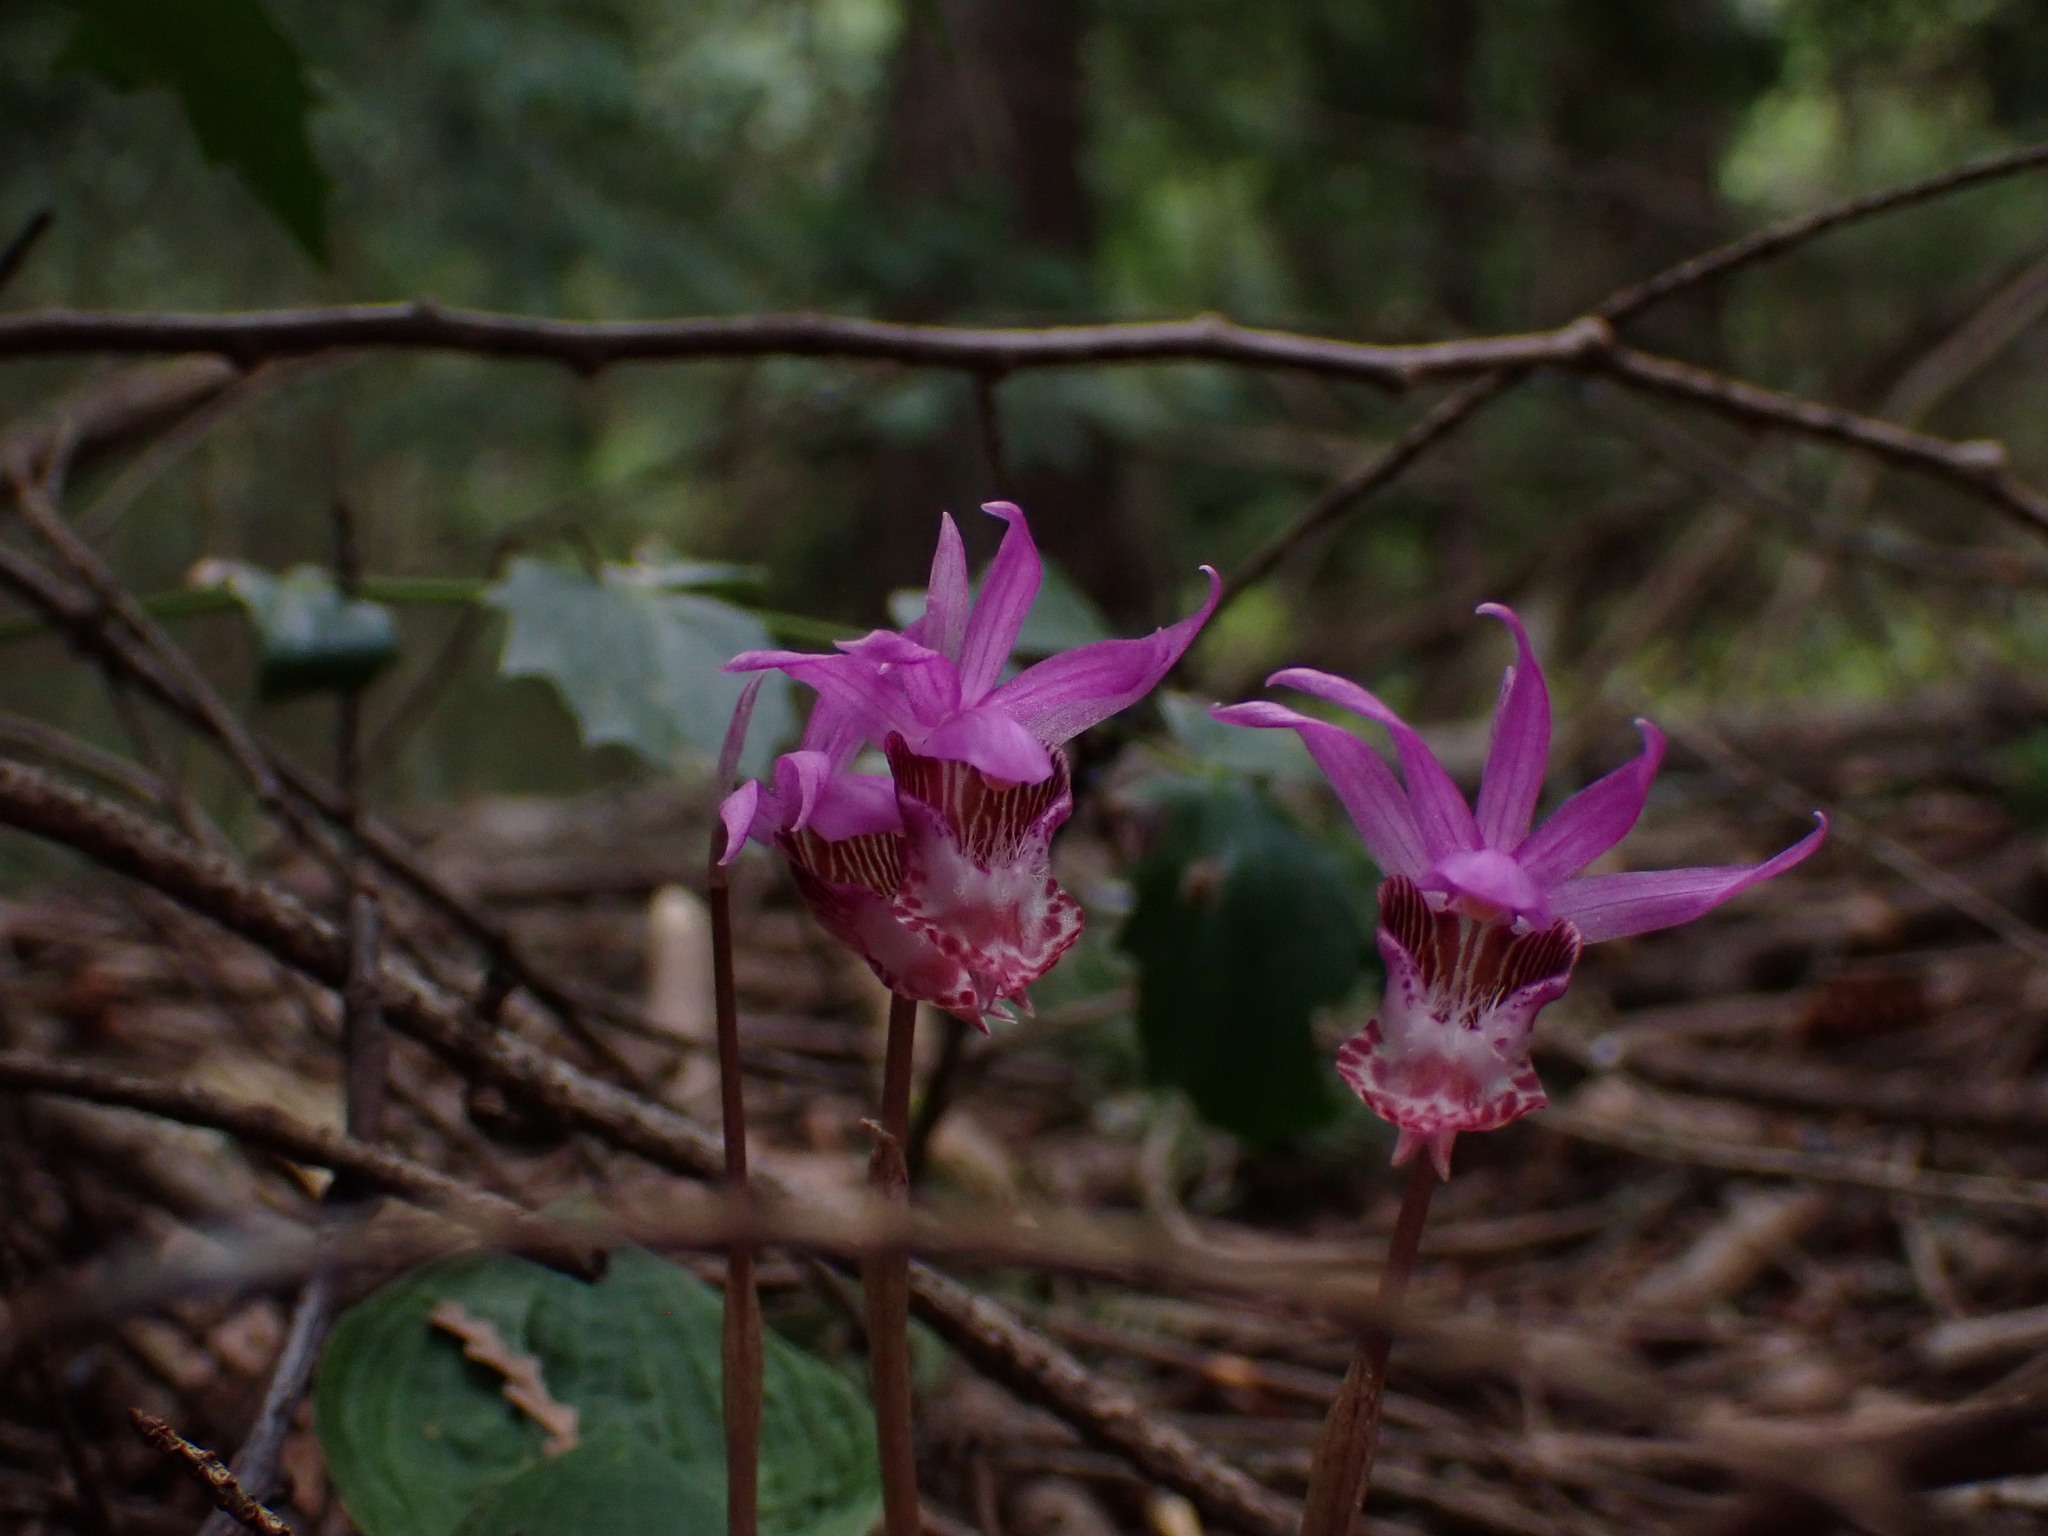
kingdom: Plantae
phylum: Tracheophyta
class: Liliopsida
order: Asparagales
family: Orchidaceae
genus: Calypso
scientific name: Calypso bulbosa
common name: Calypso
